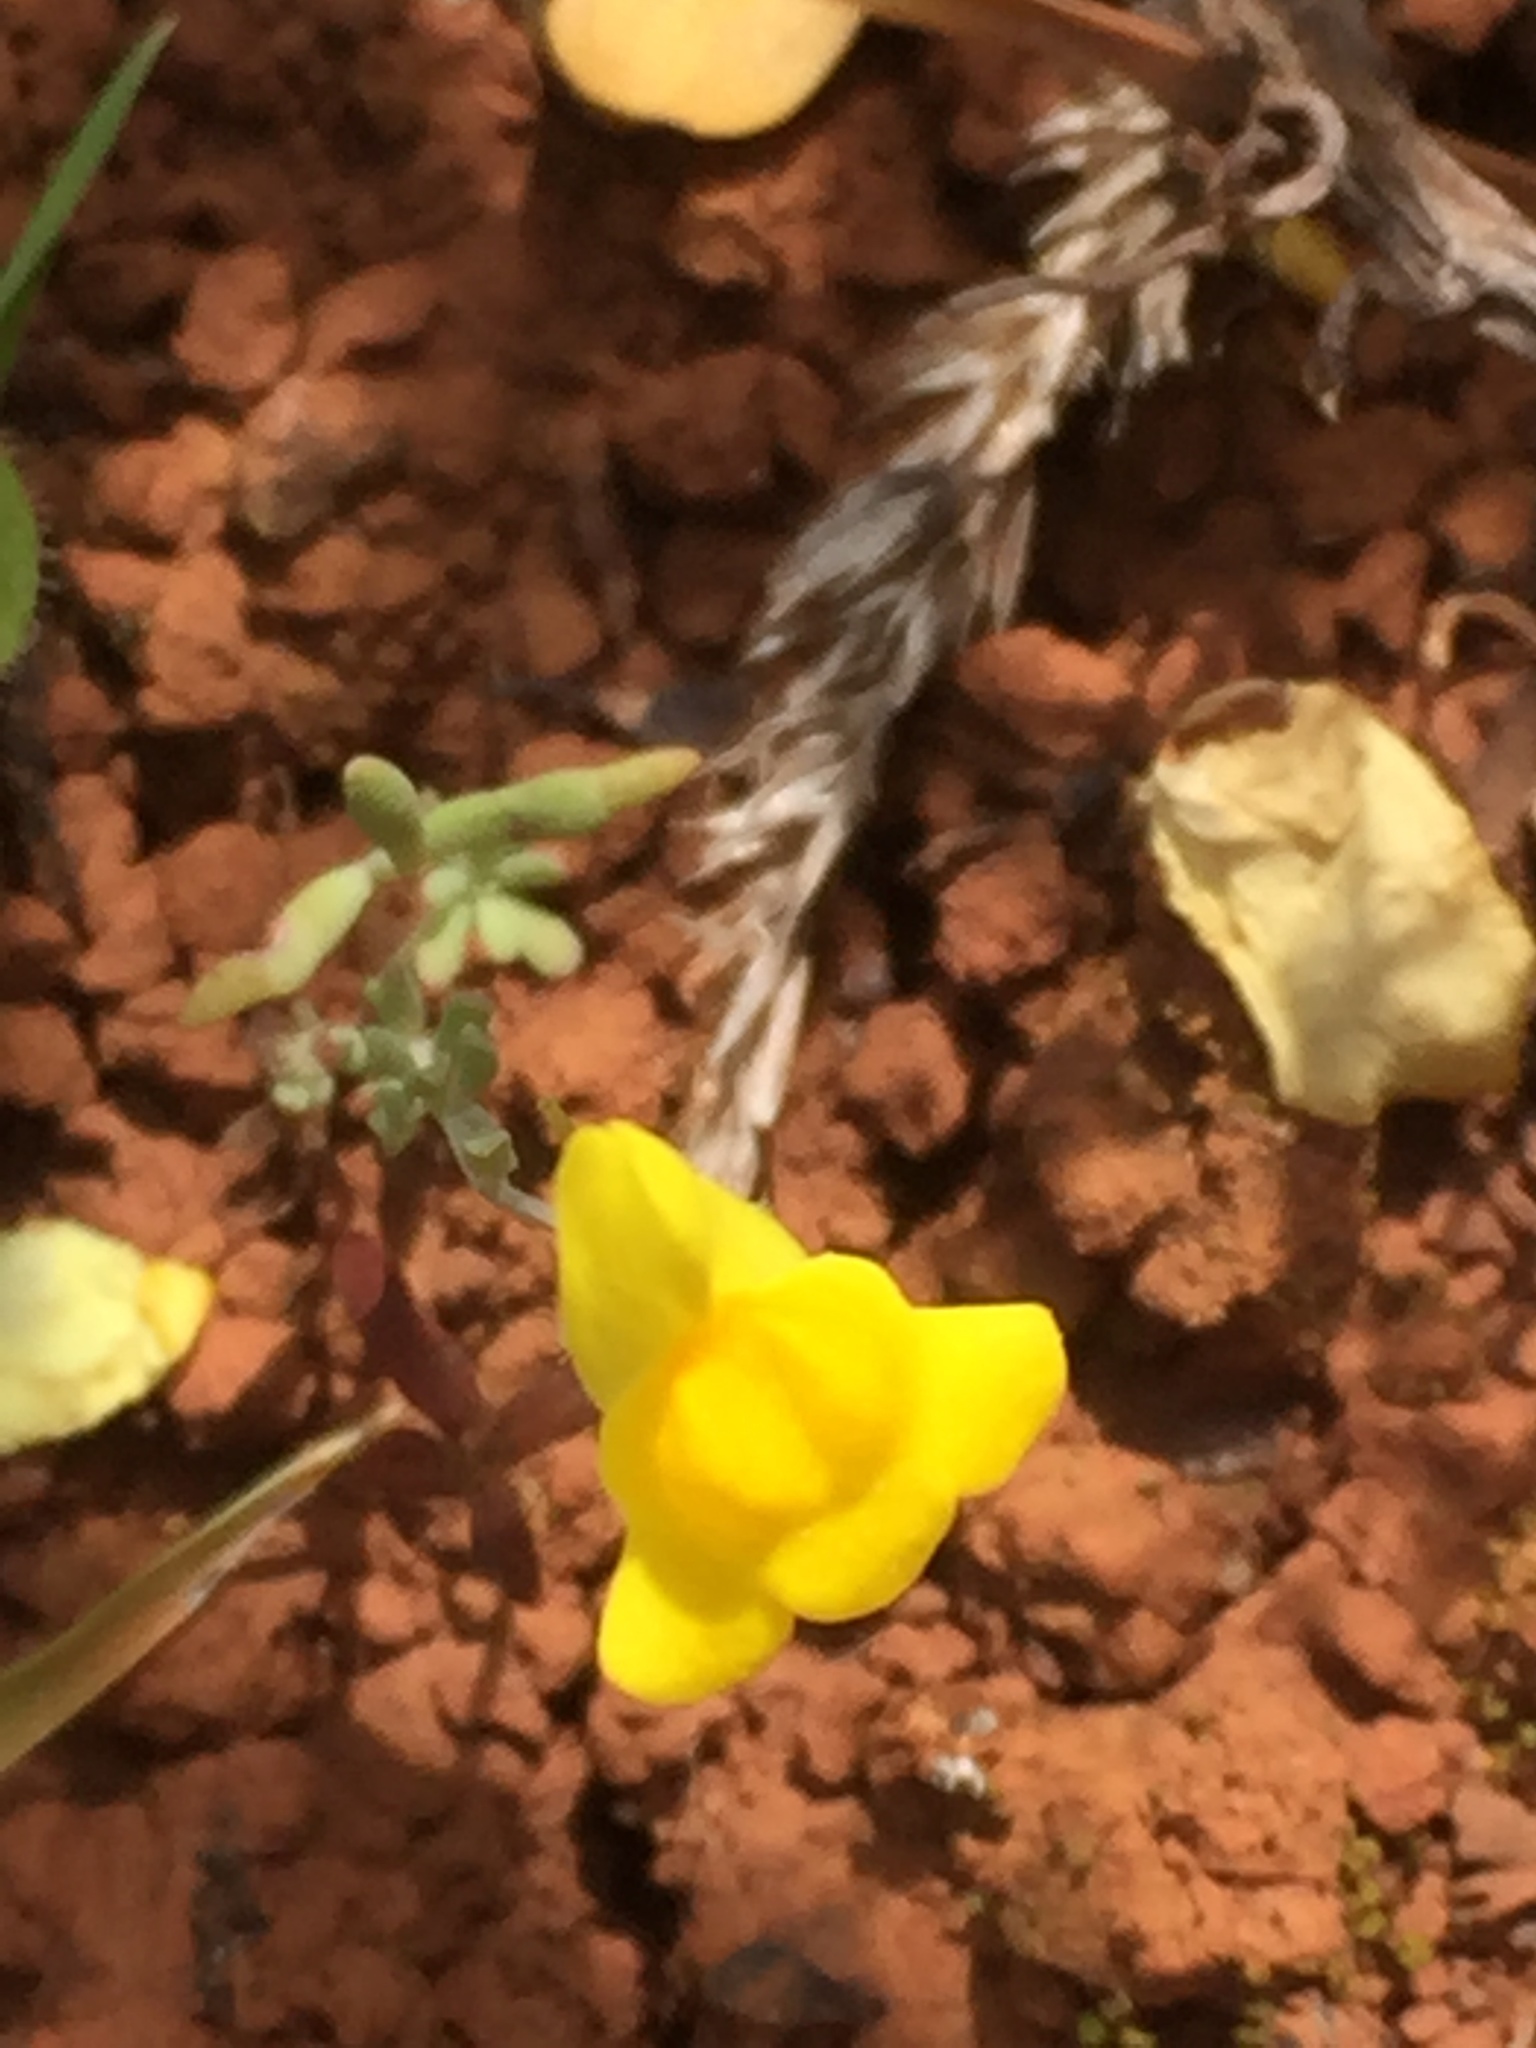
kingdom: Plantae
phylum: Tracheophyta
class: Magnoliopsida
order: Lamiales
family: Plantaginaceae
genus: Linaria
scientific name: Linaria oblongifolia
